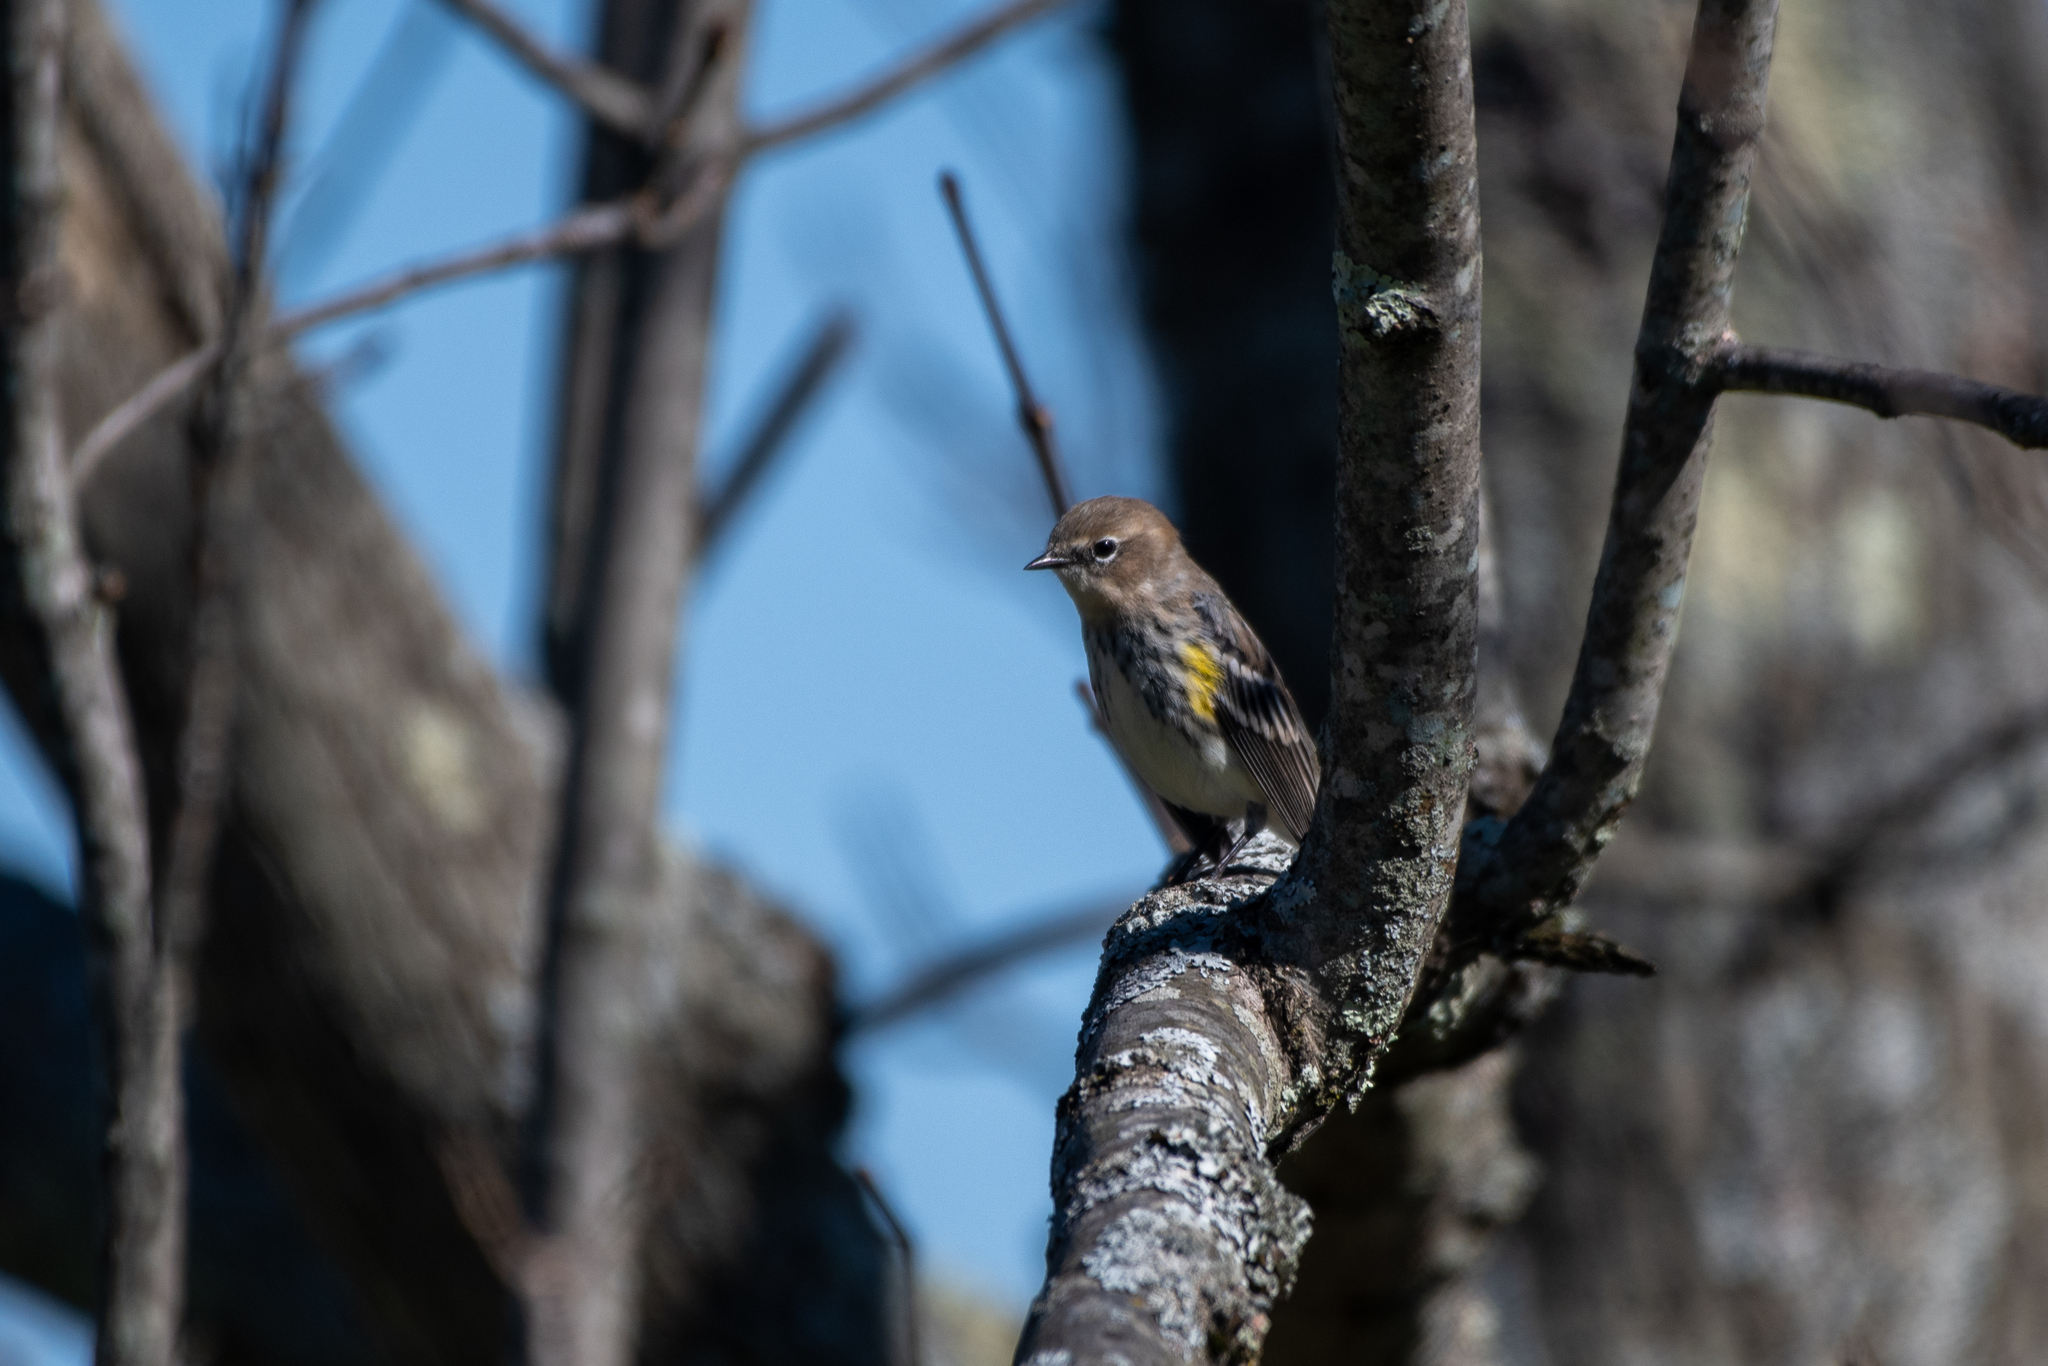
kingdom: Animalia
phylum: Chordata
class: Aves
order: Passeriformes
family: Parulidae
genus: Setophaga
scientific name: Setophaga coronata
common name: Myrtle warbler
